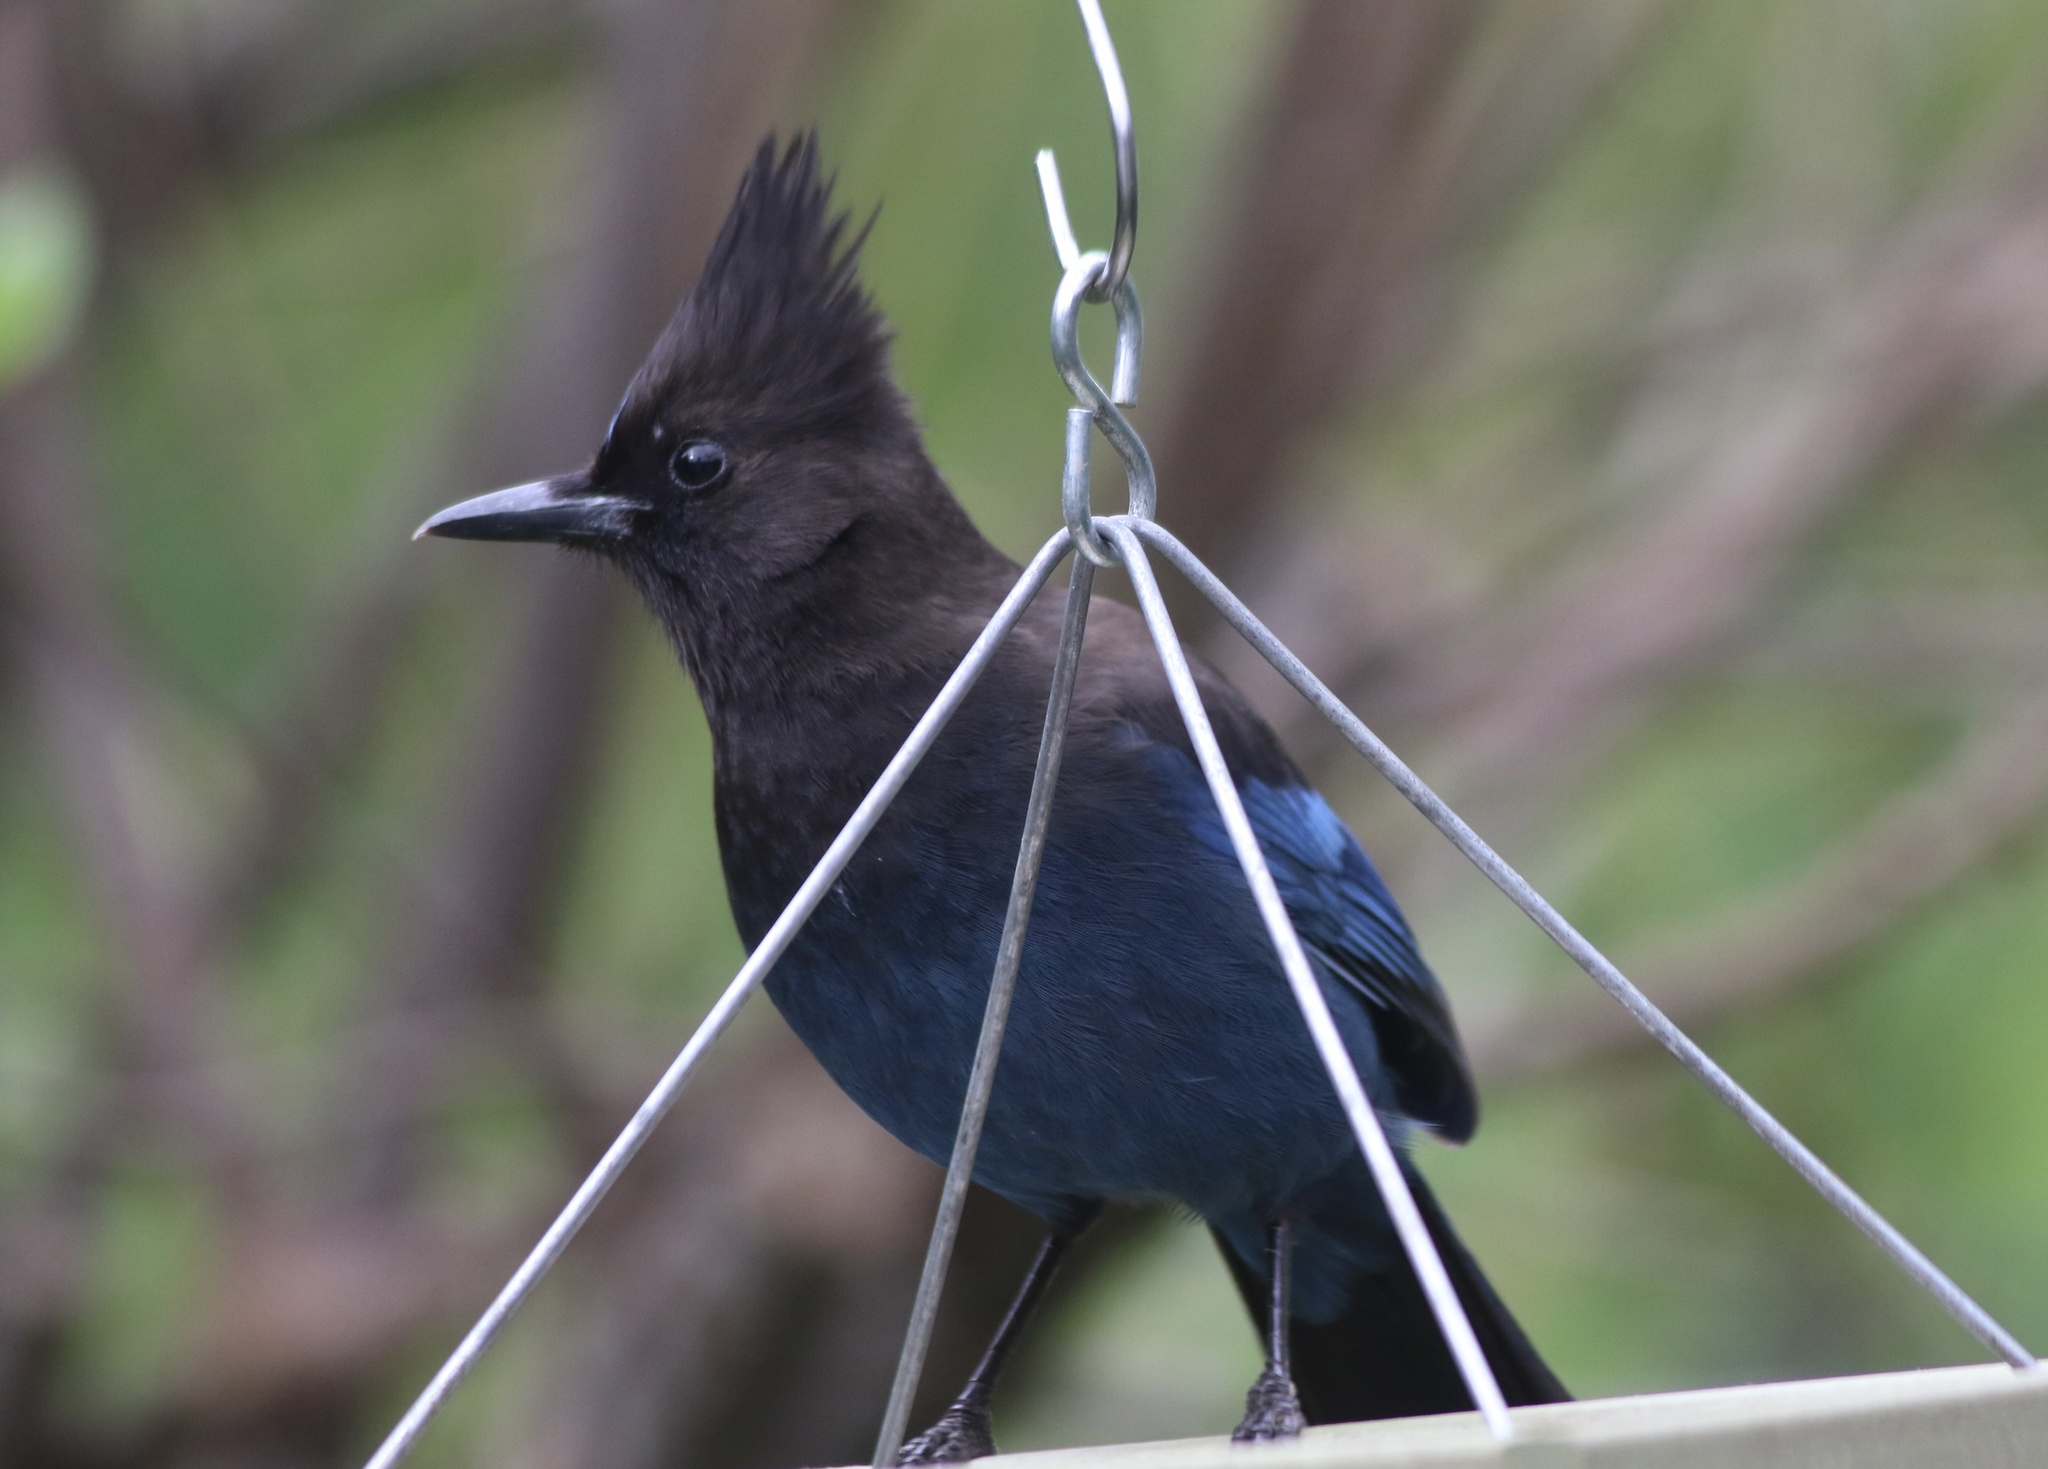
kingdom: Animalia
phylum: Chordata
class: Aves
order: Passeriformes
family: Corvidae
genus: Cyanocitta
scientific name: Cyanocitta stelleri
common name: Steller's jay
